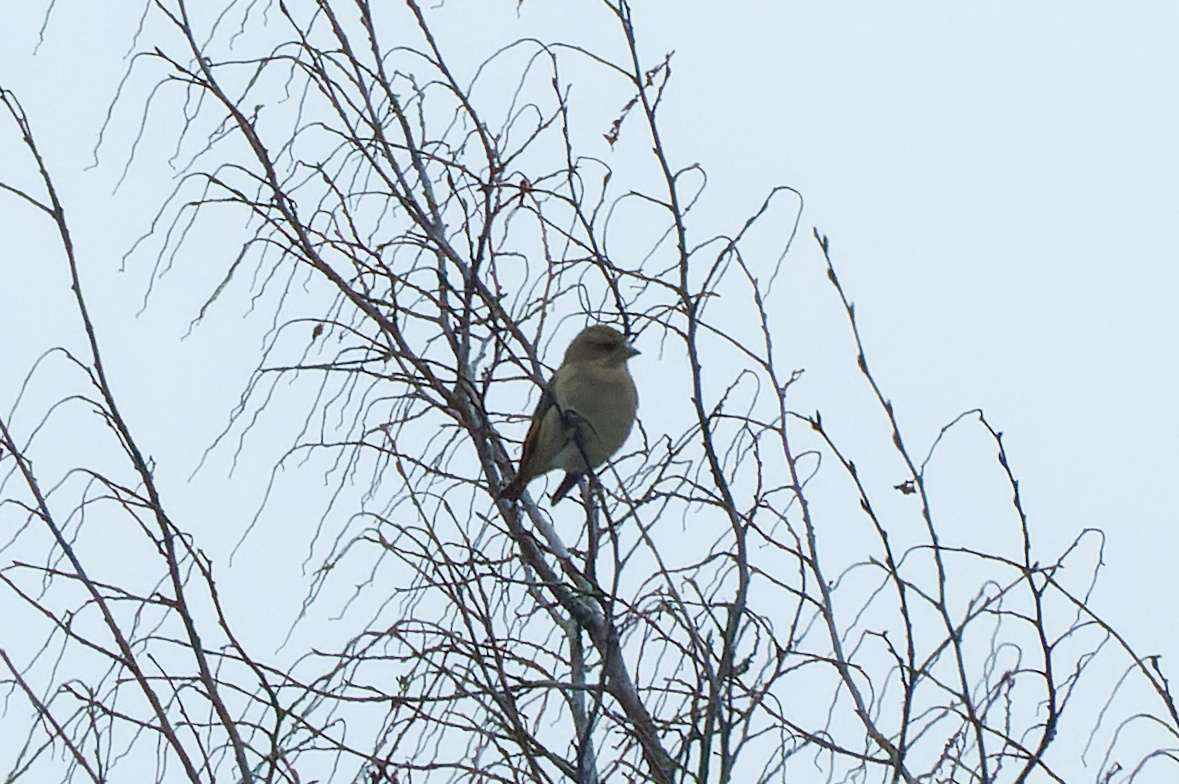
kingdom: Plantae
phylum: Tracheophyta
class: Liliopsida
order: Poales
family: Poaceae
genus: Chloris
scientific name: Chloris chloris
